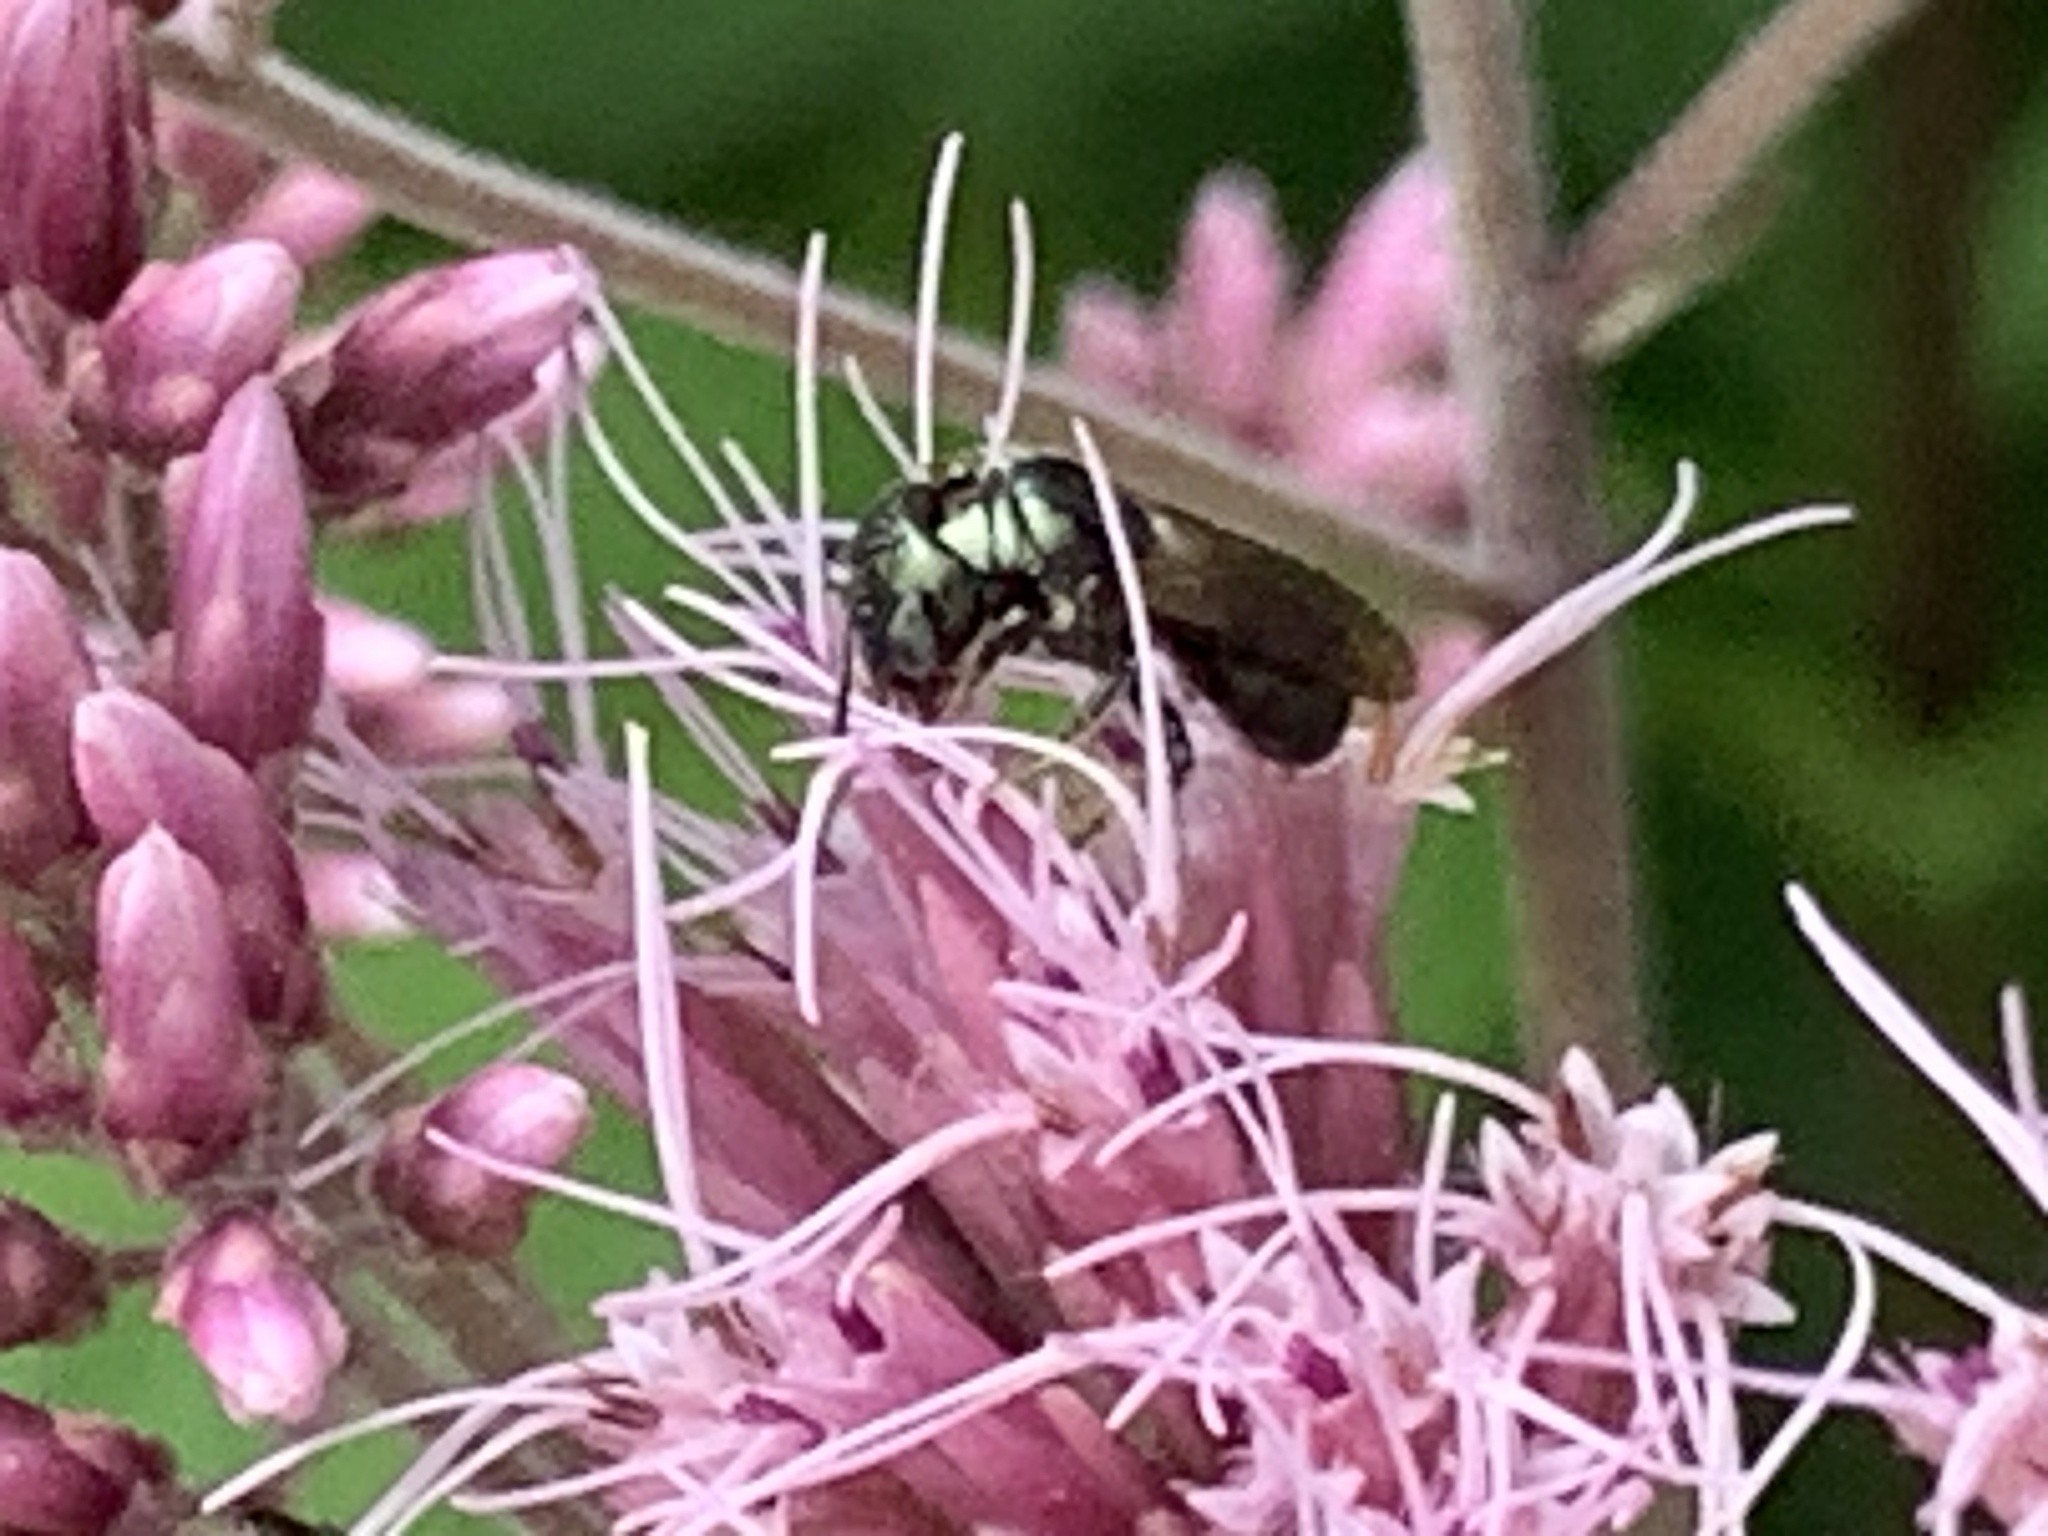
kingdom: Animalia
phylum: Arthropoda
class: Insecta
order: Hymenoptera
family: Apidae
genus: Zadontomerus
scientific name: Zadontomerus
